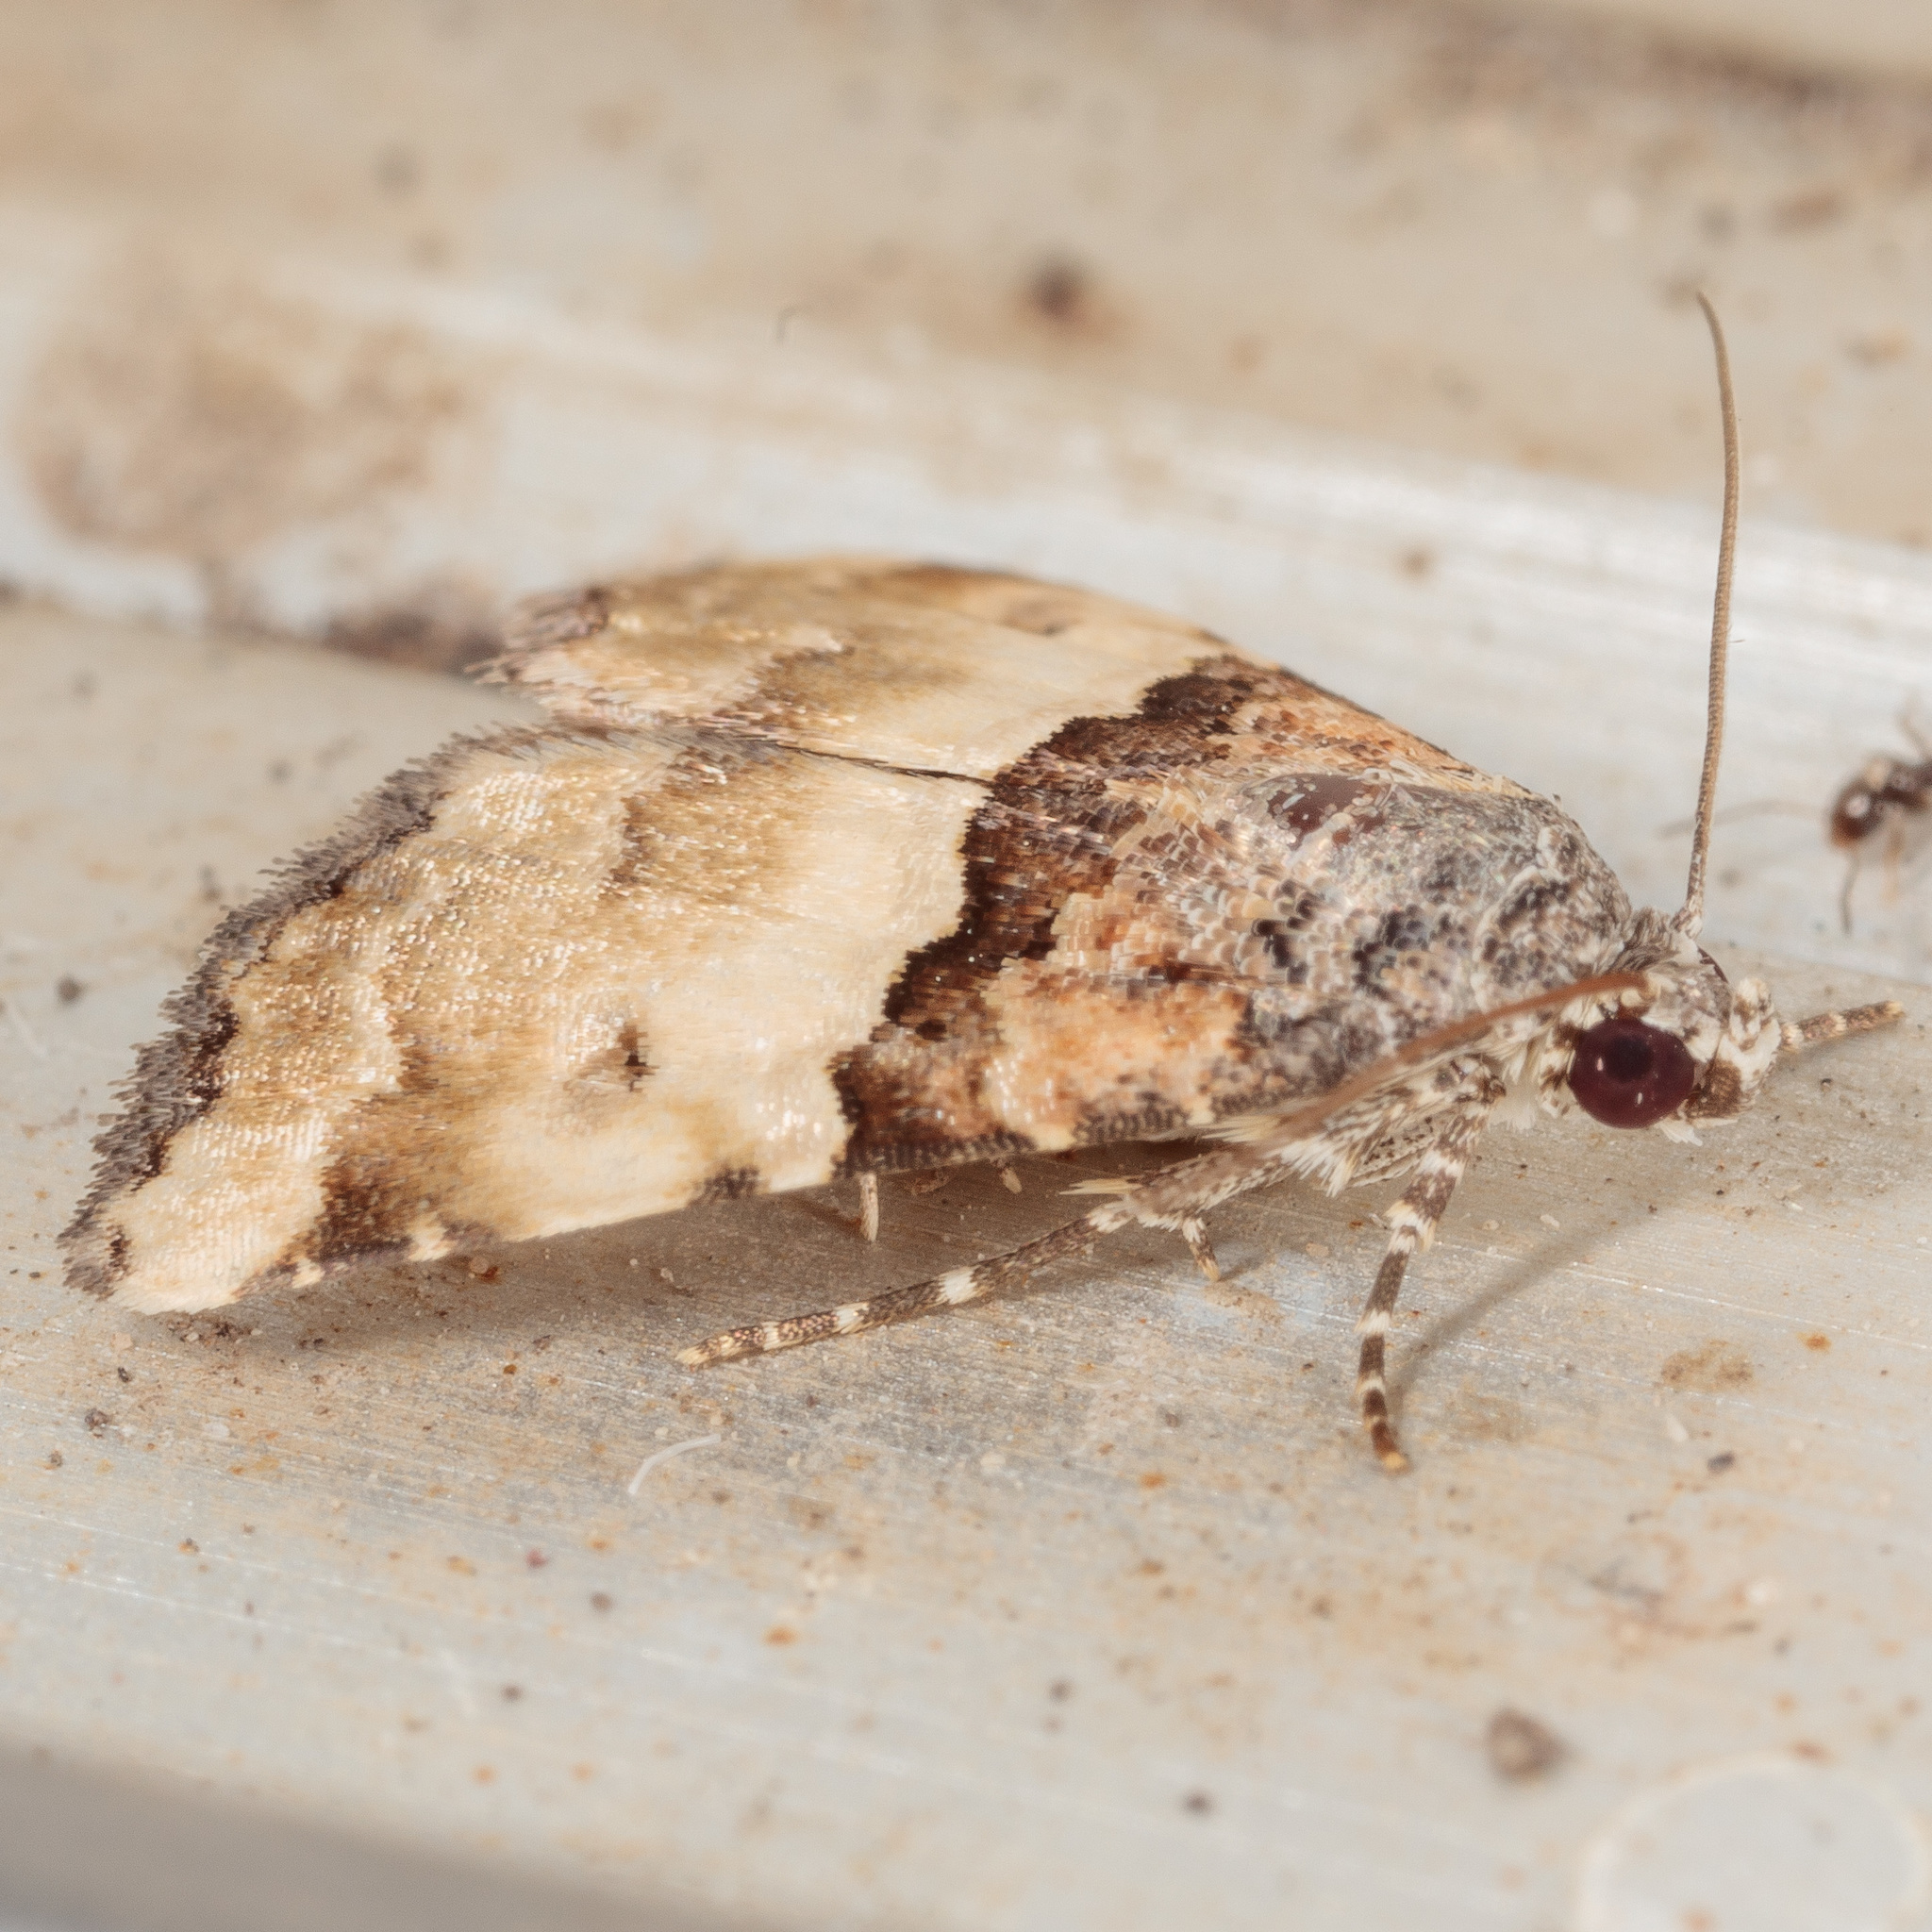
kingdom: Animalia
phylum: Arthropoda
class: Insecta
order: Lepidoptera
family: Noctuidae
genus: Cobubatha
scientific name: Cobubatha dividua
